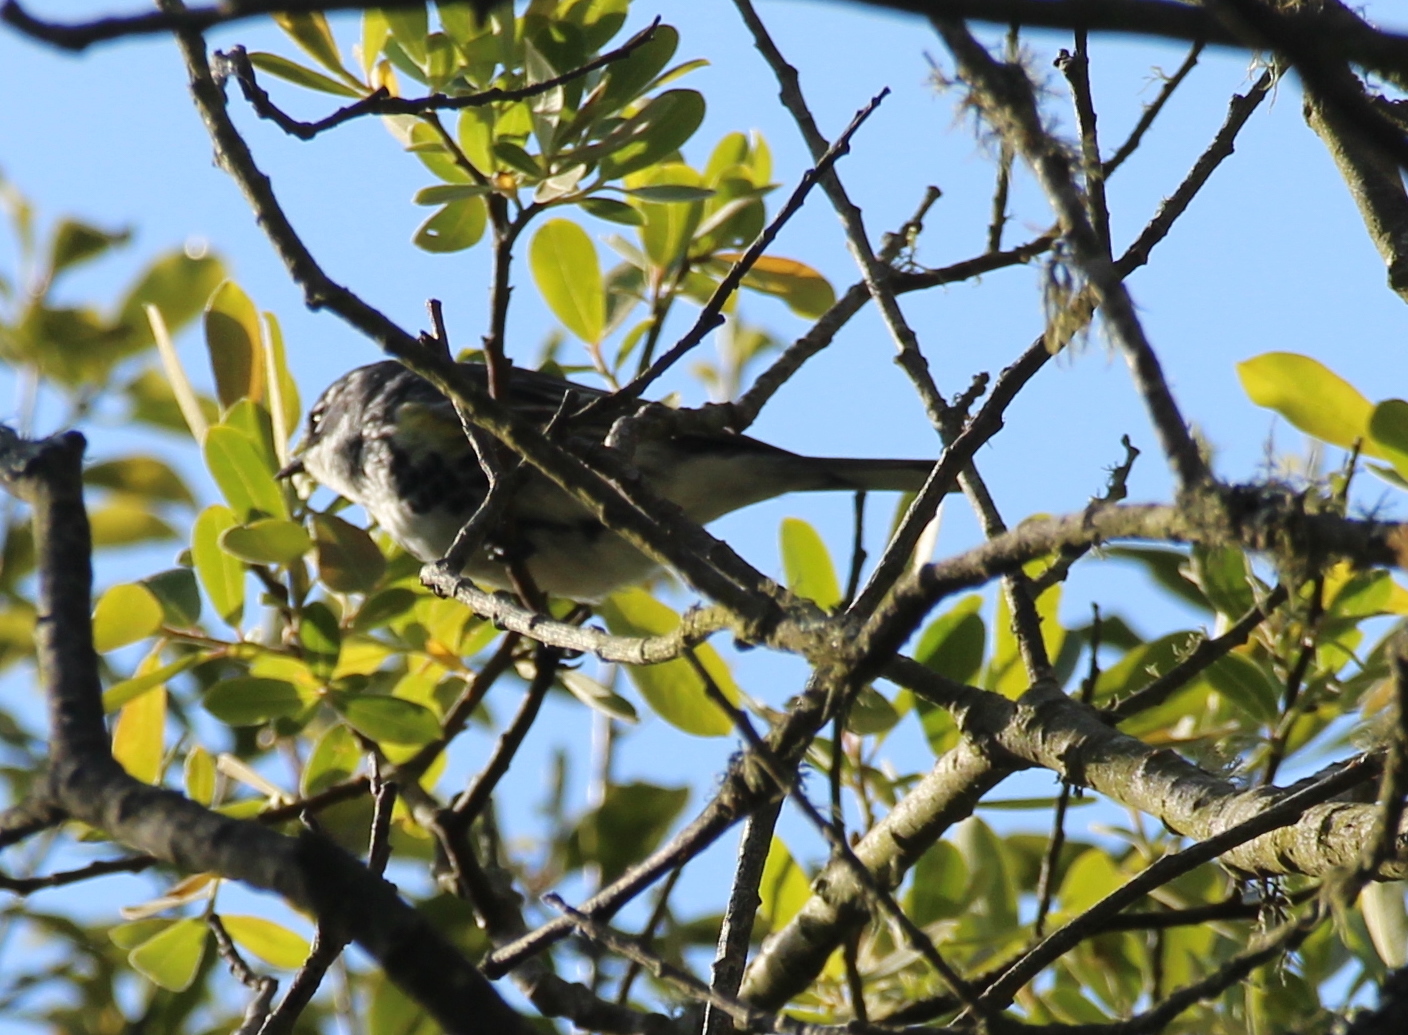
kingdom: Animalia
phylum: Chordata
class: Aves
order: Passeriformes
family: Parulidae
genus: Setophaga
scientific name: Setophaga coronata
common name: Myrtle warbler
